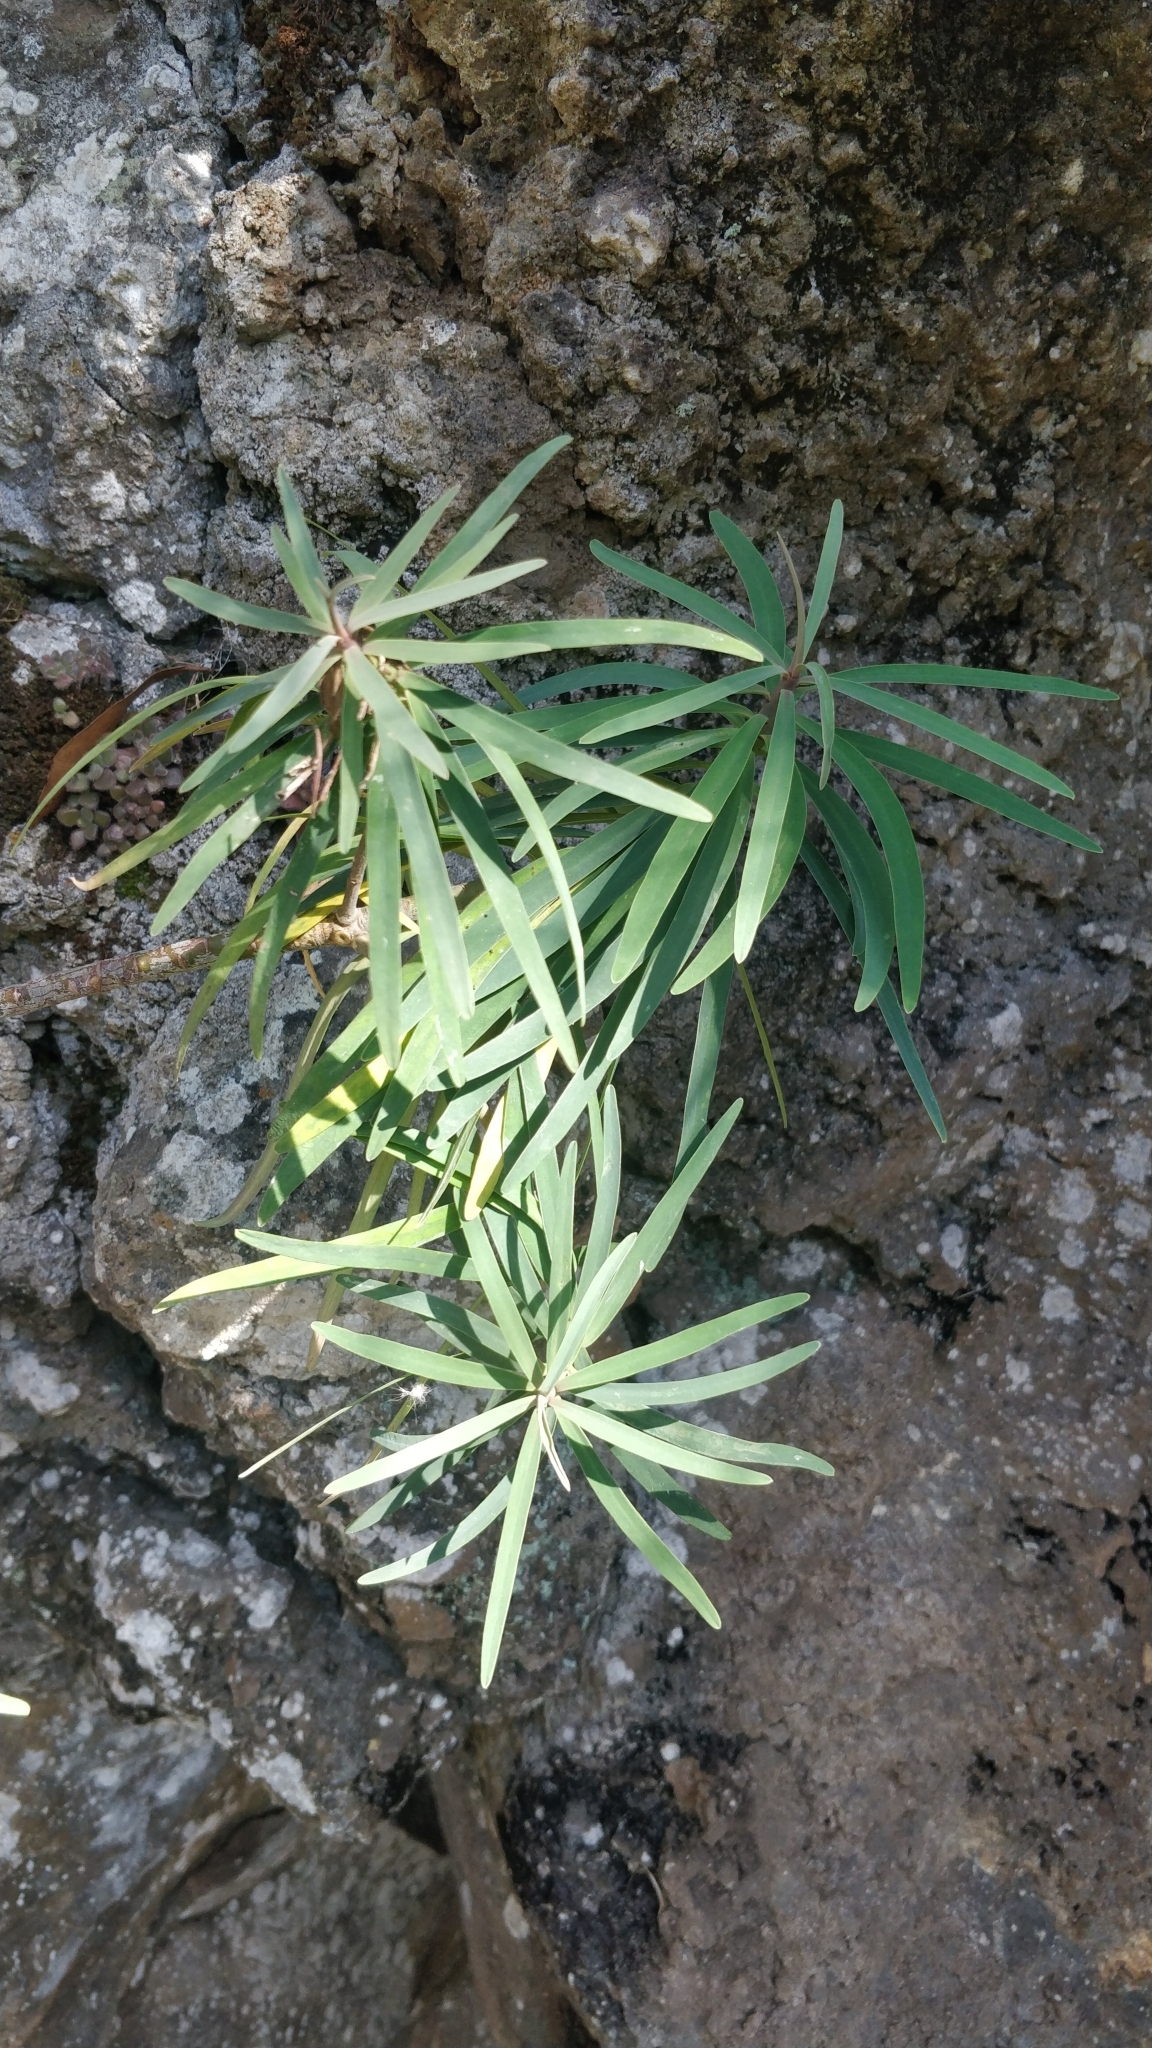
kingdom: Plantae
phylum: Tracheophyta
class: Magnoliopsida
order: Malpighiales
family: Euphorbiaceae
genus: Euphorbia
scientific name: Euphorbia piscatoria
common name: Fish-stunning spurge
